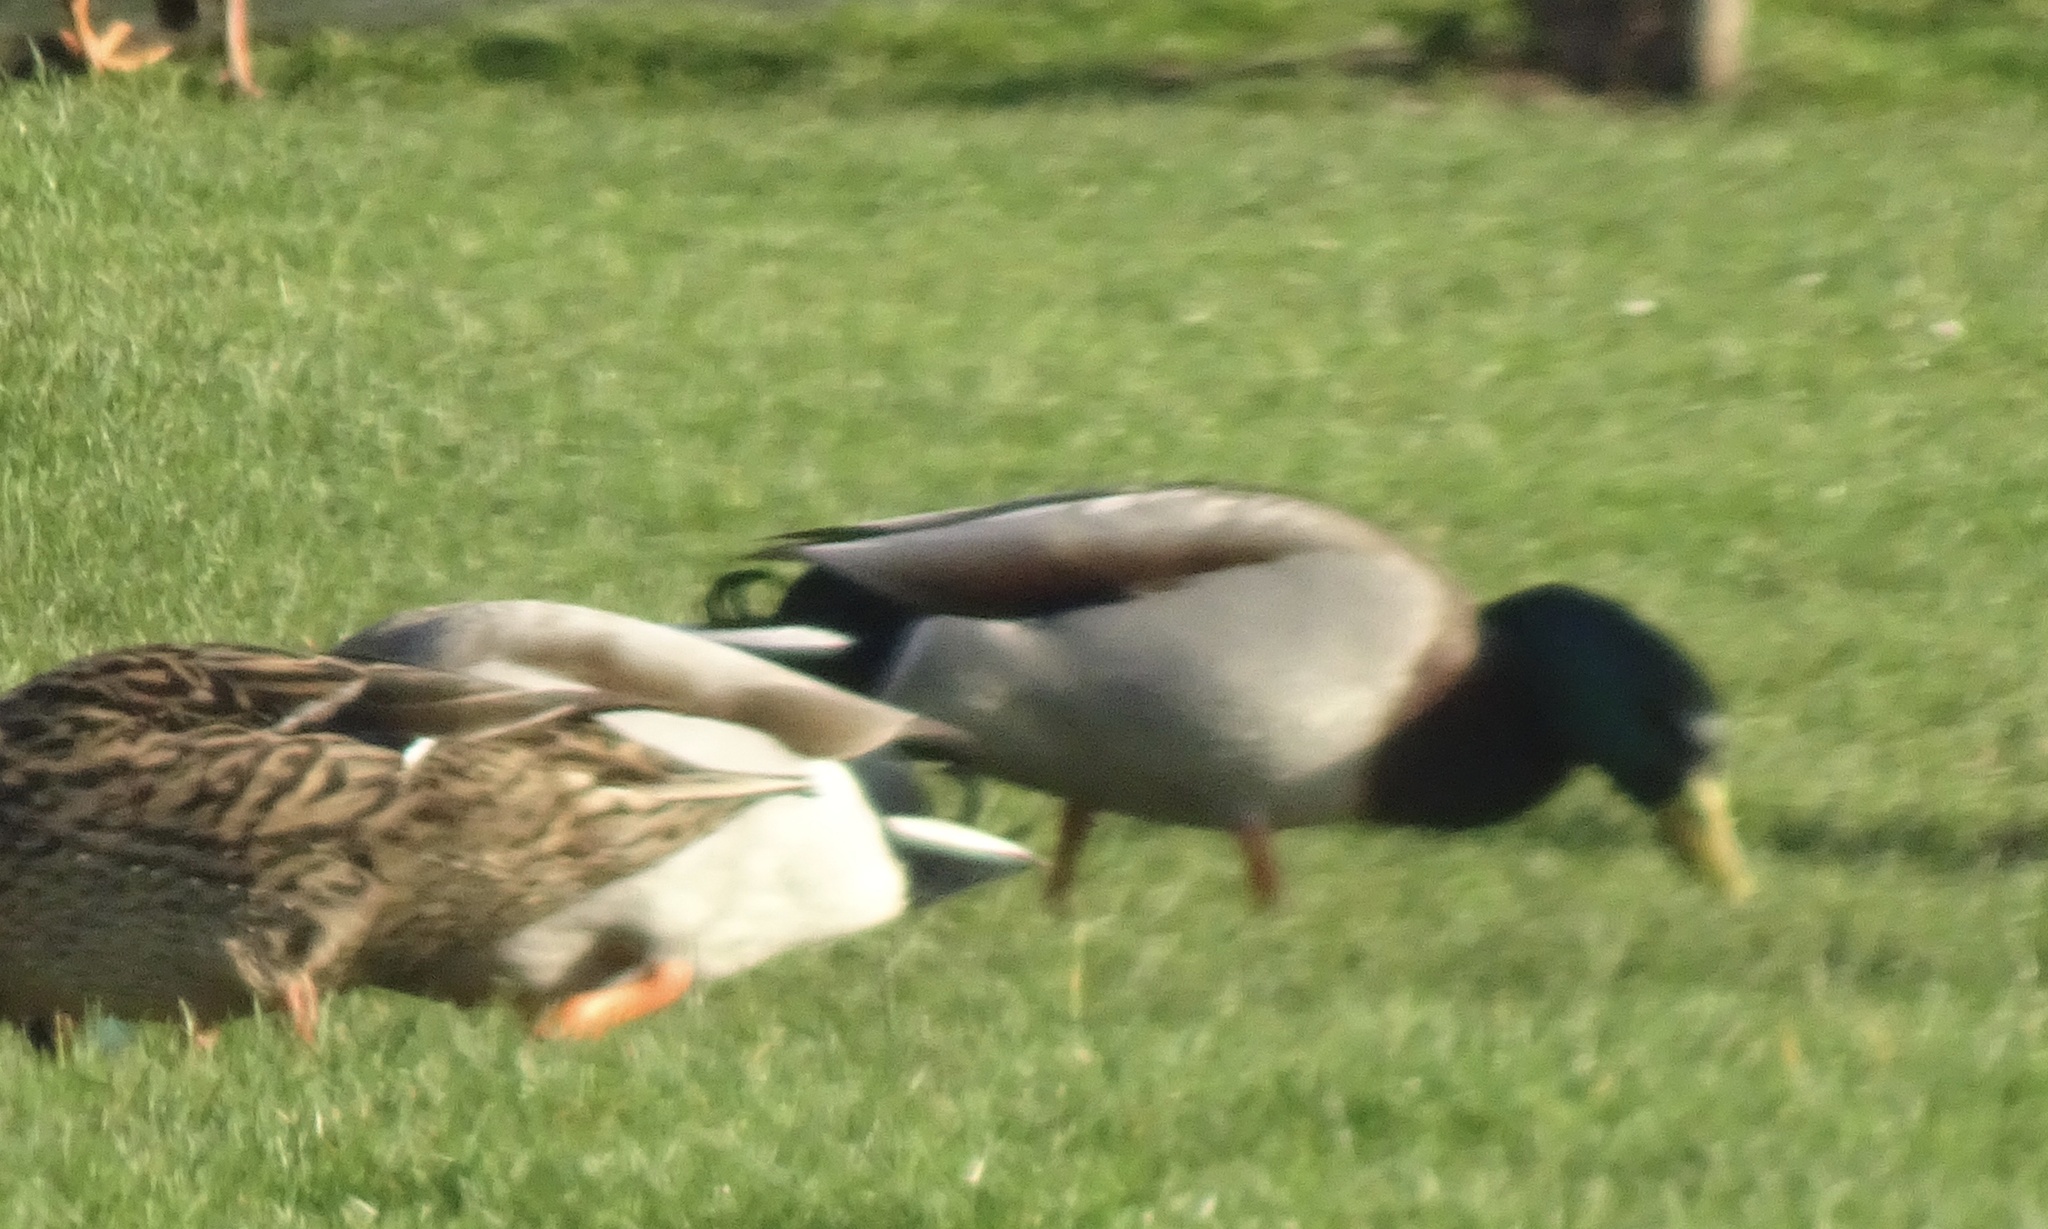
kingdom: Animalia
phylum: Chordata
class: Aves
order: Anseriformes
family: Anatidae
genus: Anas
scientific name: Anas platyrhynchos
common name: Mallard
